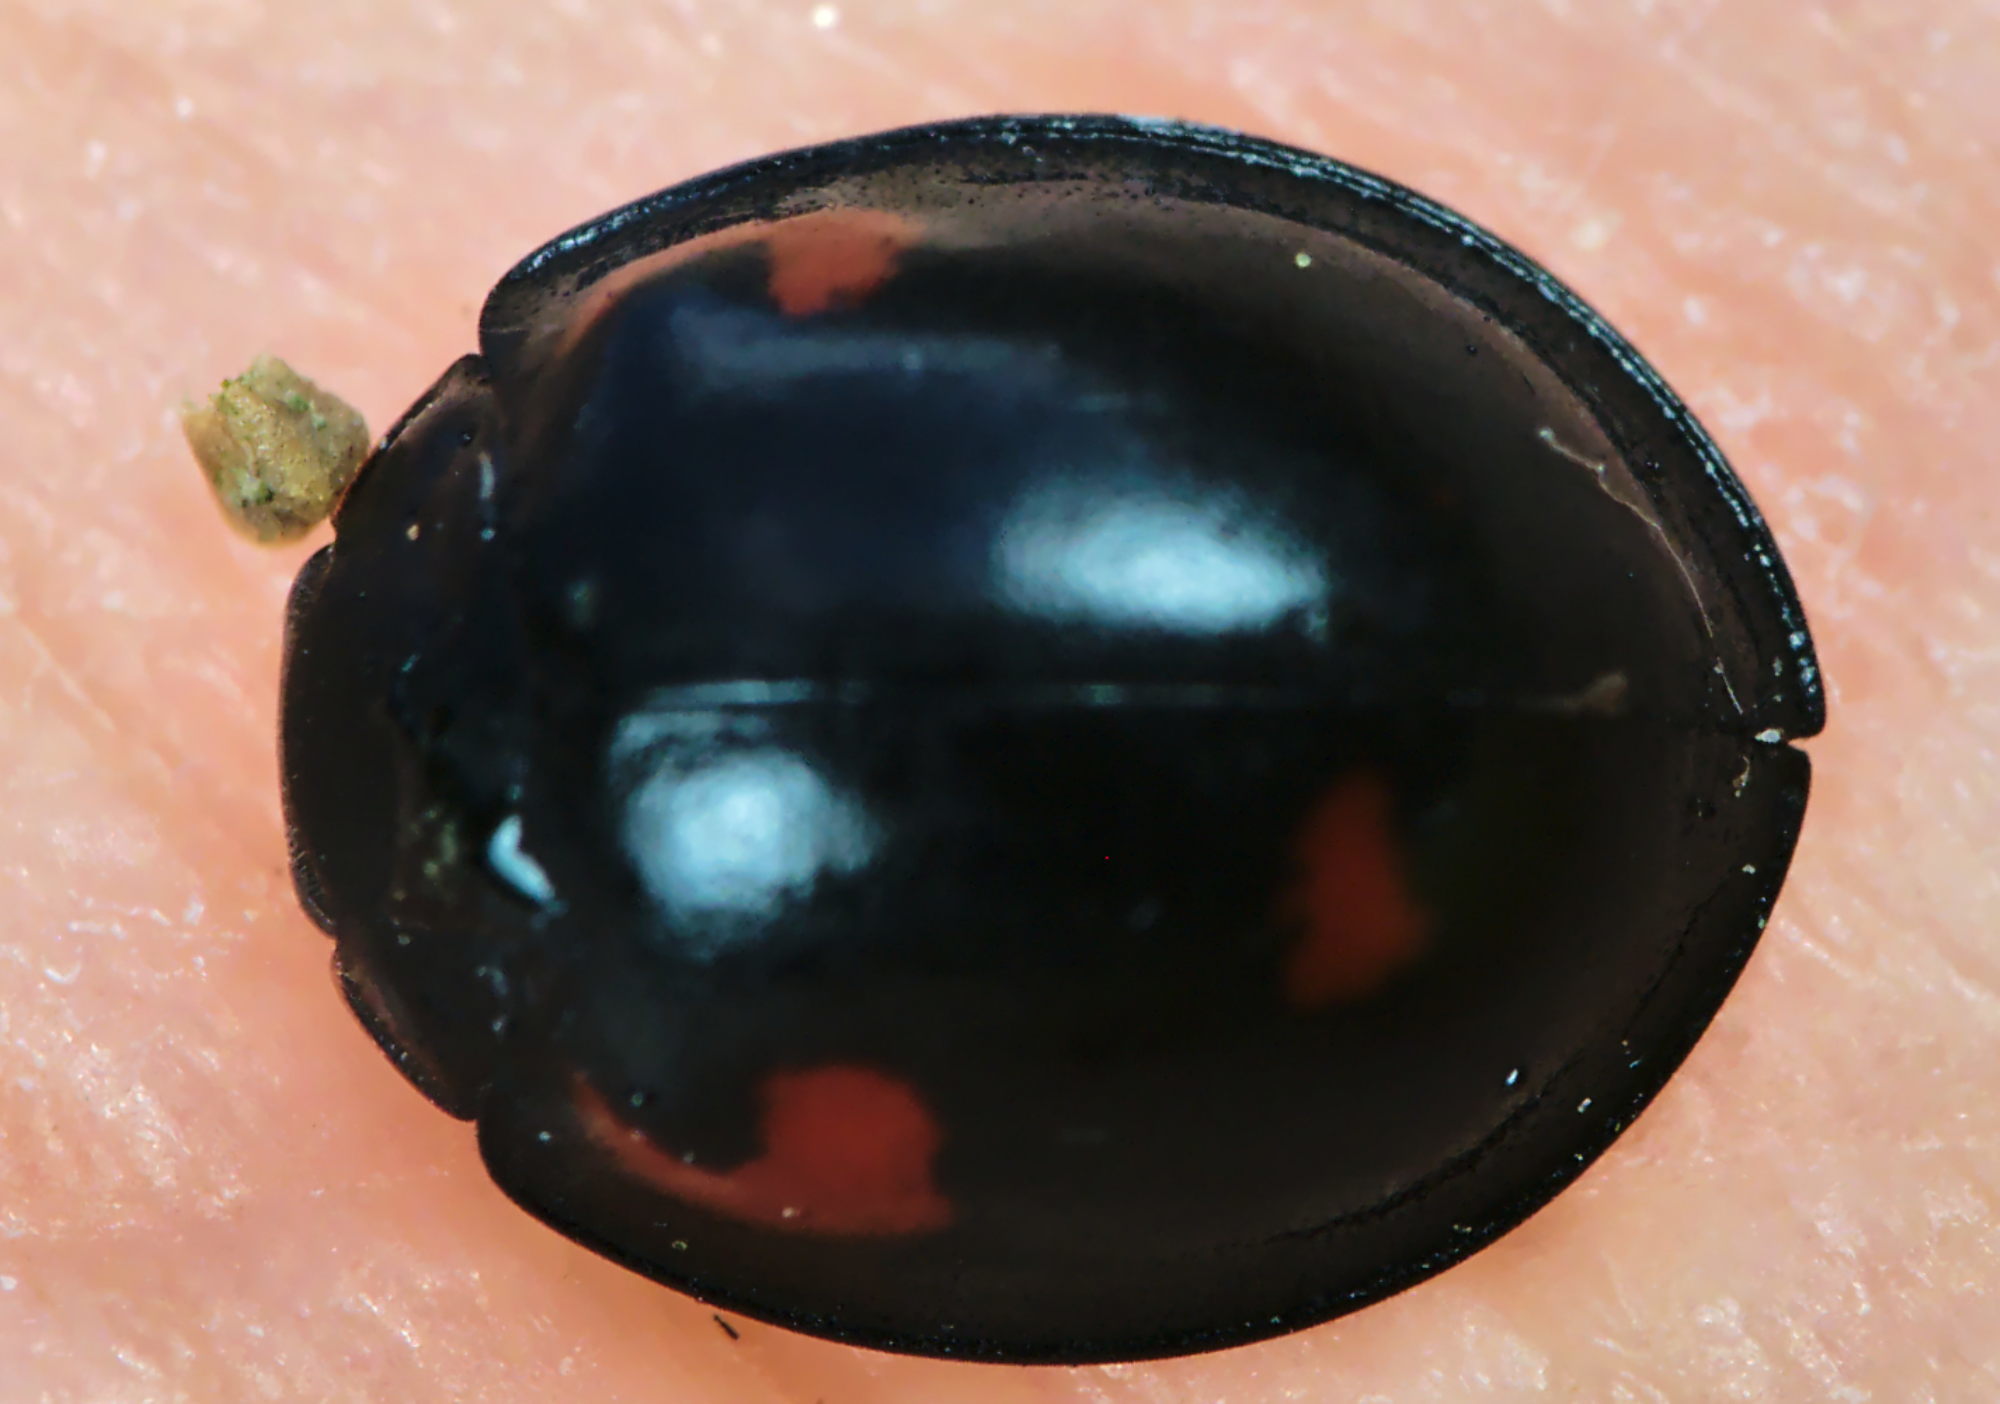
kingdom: Animalia
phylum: Arthropoda
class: Insecta
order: Coleoptera
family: Coccinellidae
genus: Brumus
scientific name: Brumus quadripustulatus
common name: Ladybird beetle
